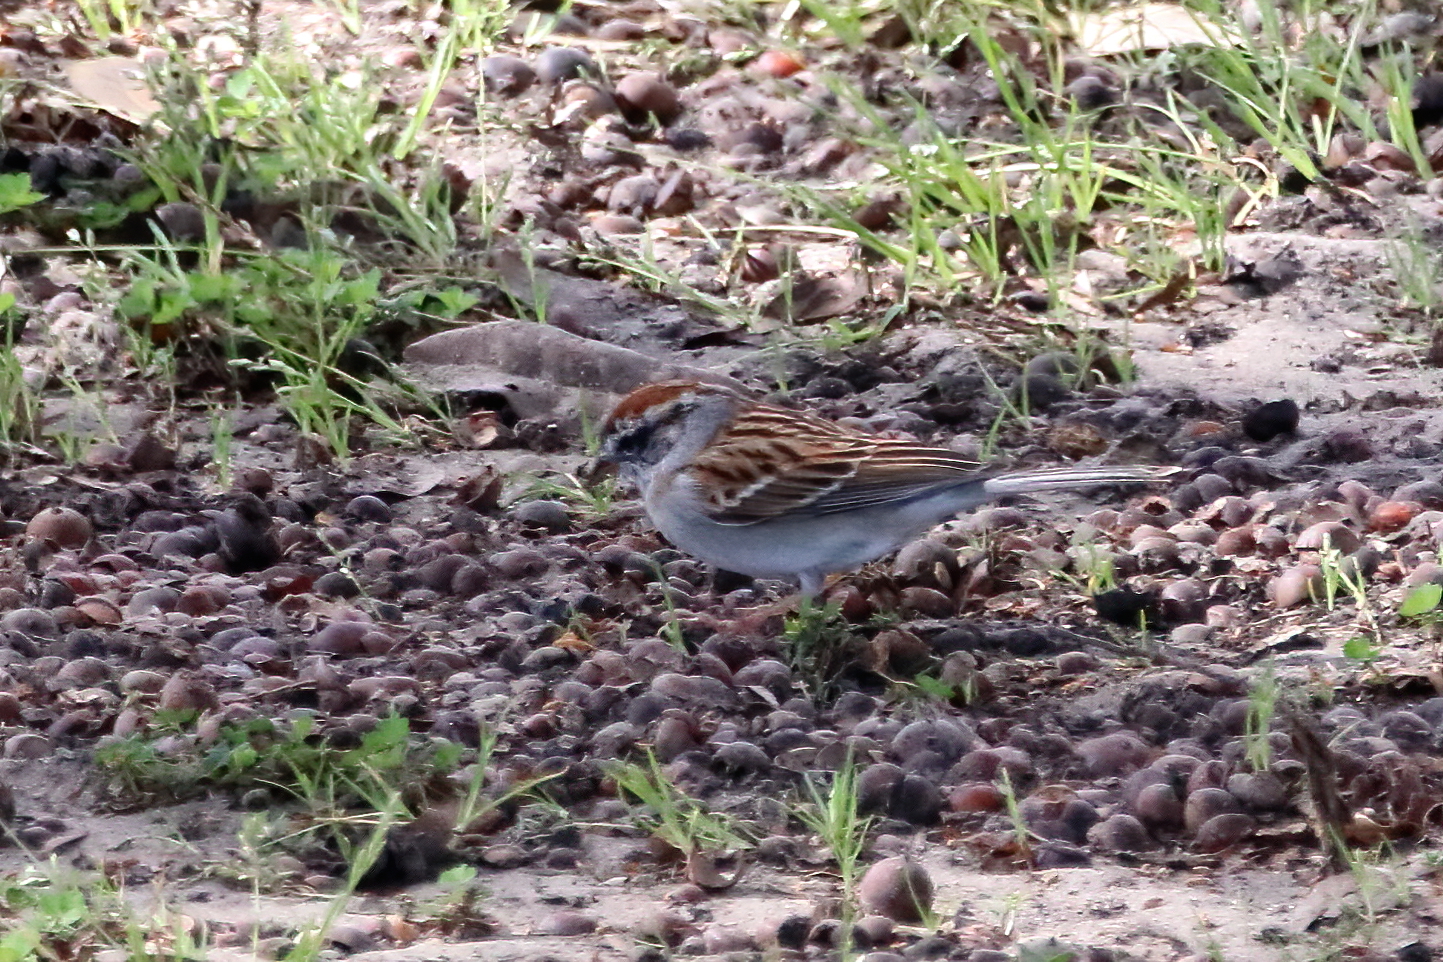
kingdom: Animalia
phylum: Chordata
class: Aves
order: Passeriformes
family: Passerellidae
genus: Spizella
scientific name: Spizella passerina
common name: Chipping sparrow
